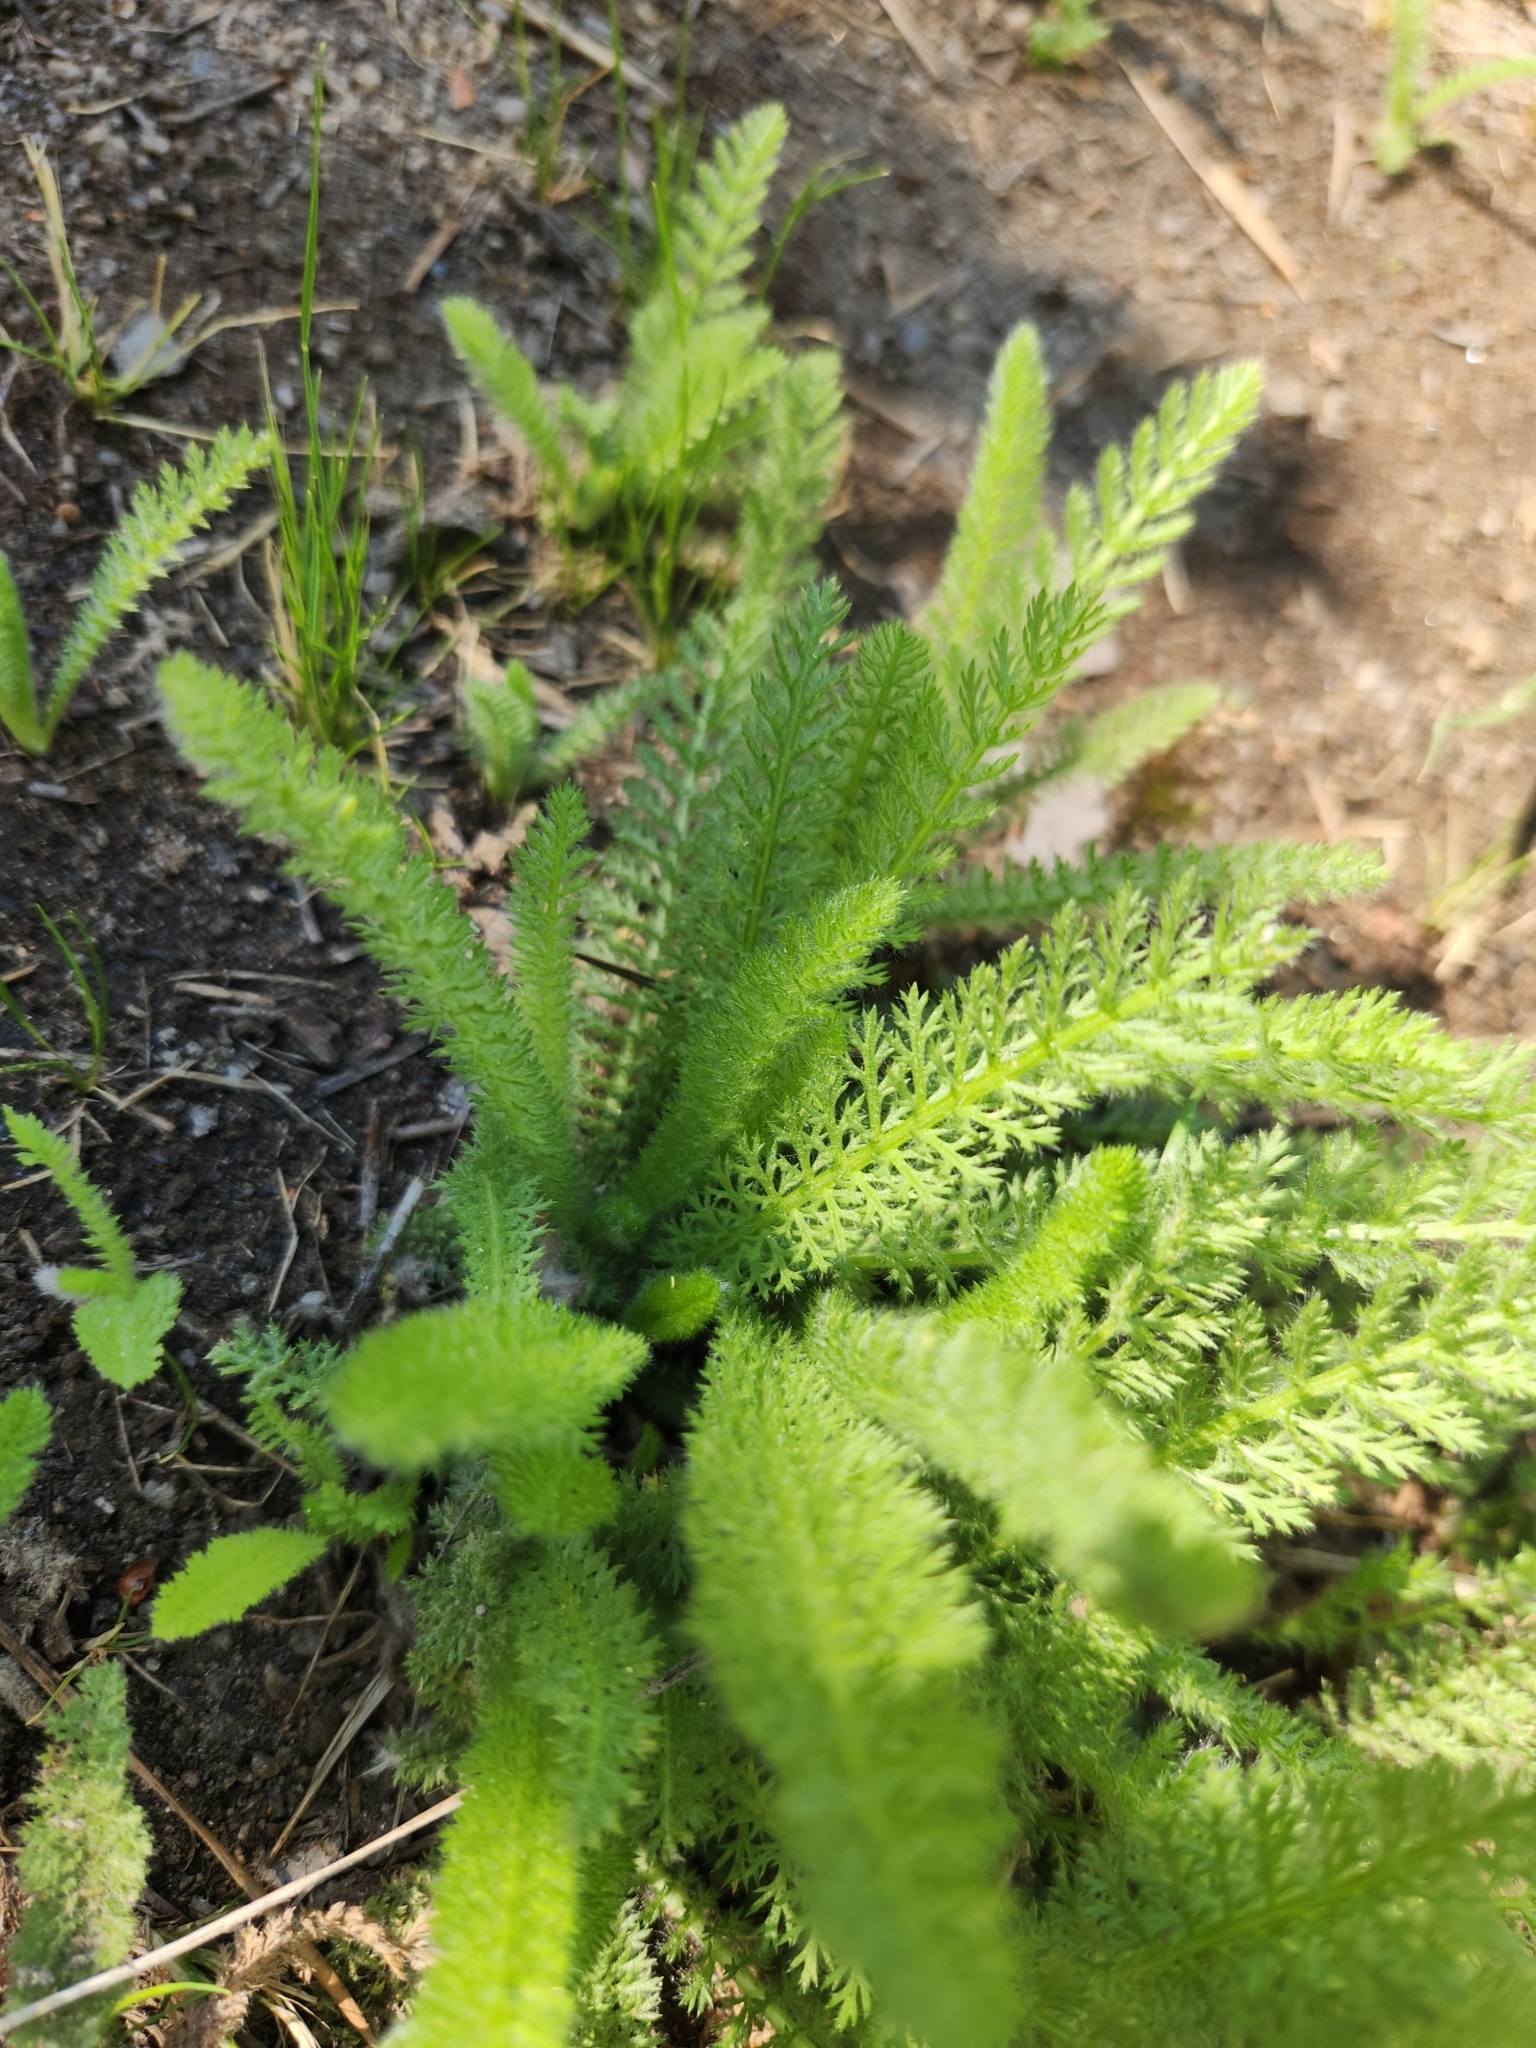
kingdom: Plantae
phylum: Tracheophyta
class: Magnoliopsida
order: Asterales
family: Asteraceae
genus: Achillea
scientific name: Achillea millefolium
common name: Yarrow
